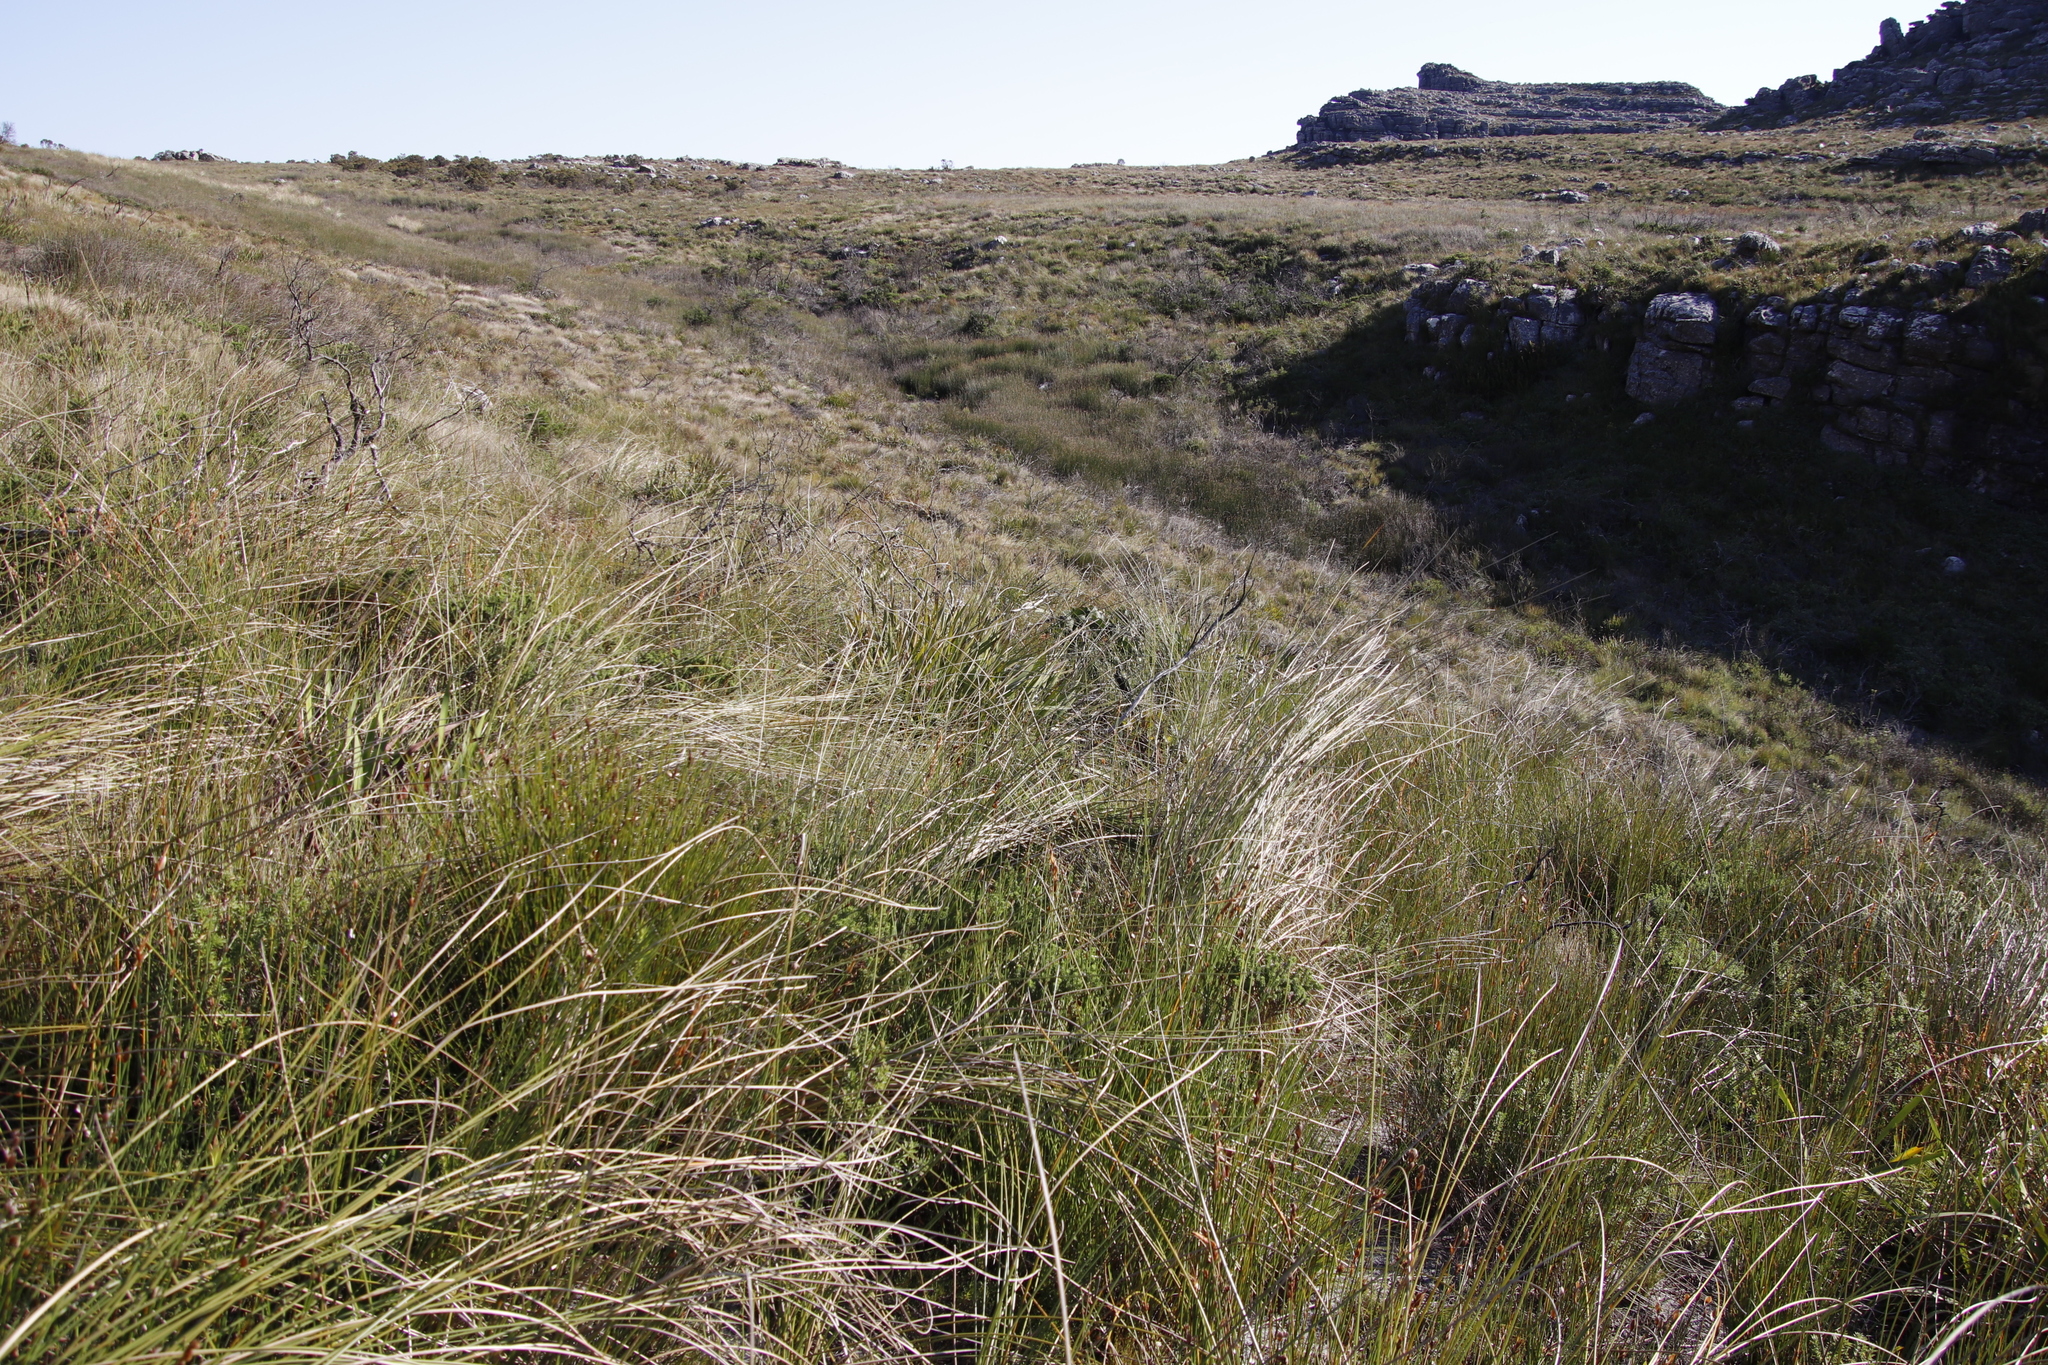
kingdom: Plantae
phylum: Tracheophyta
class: Liliopsida
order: Asparagales
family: Iridaceae
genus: Bobartia
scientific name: Bobartia indica
